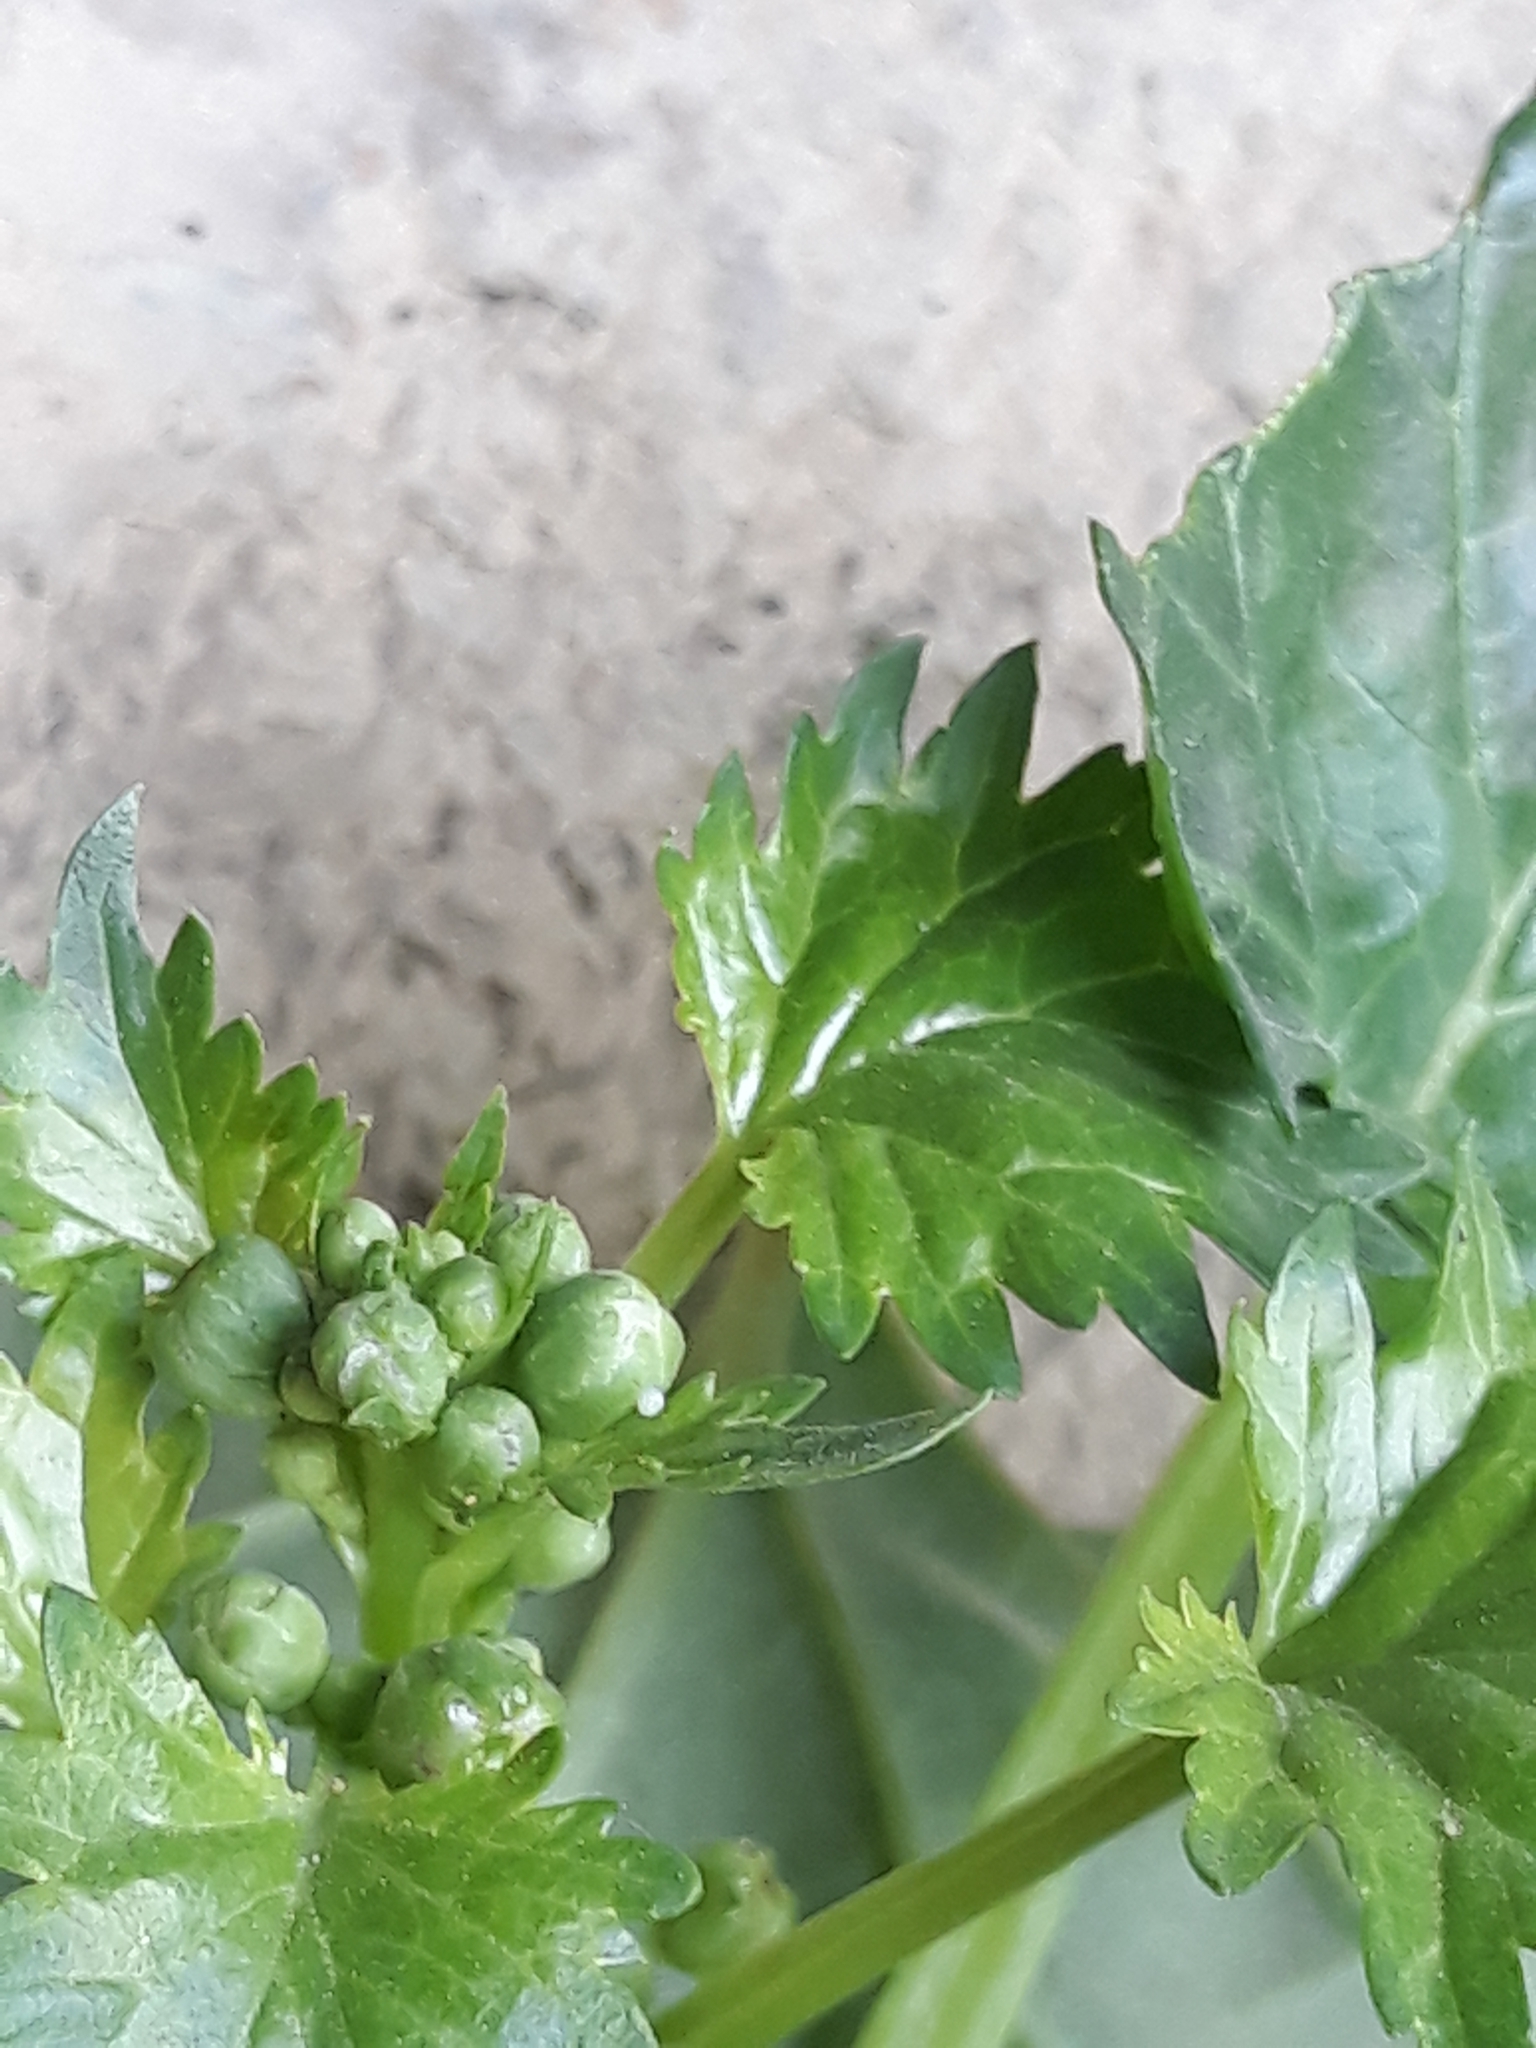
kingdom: Plantae
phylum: Tracheophyta
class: Magnoliopsida
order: Lamiales
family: Scrophulariaceae
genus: Scrophularia
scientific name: Scrophularia laevigata
